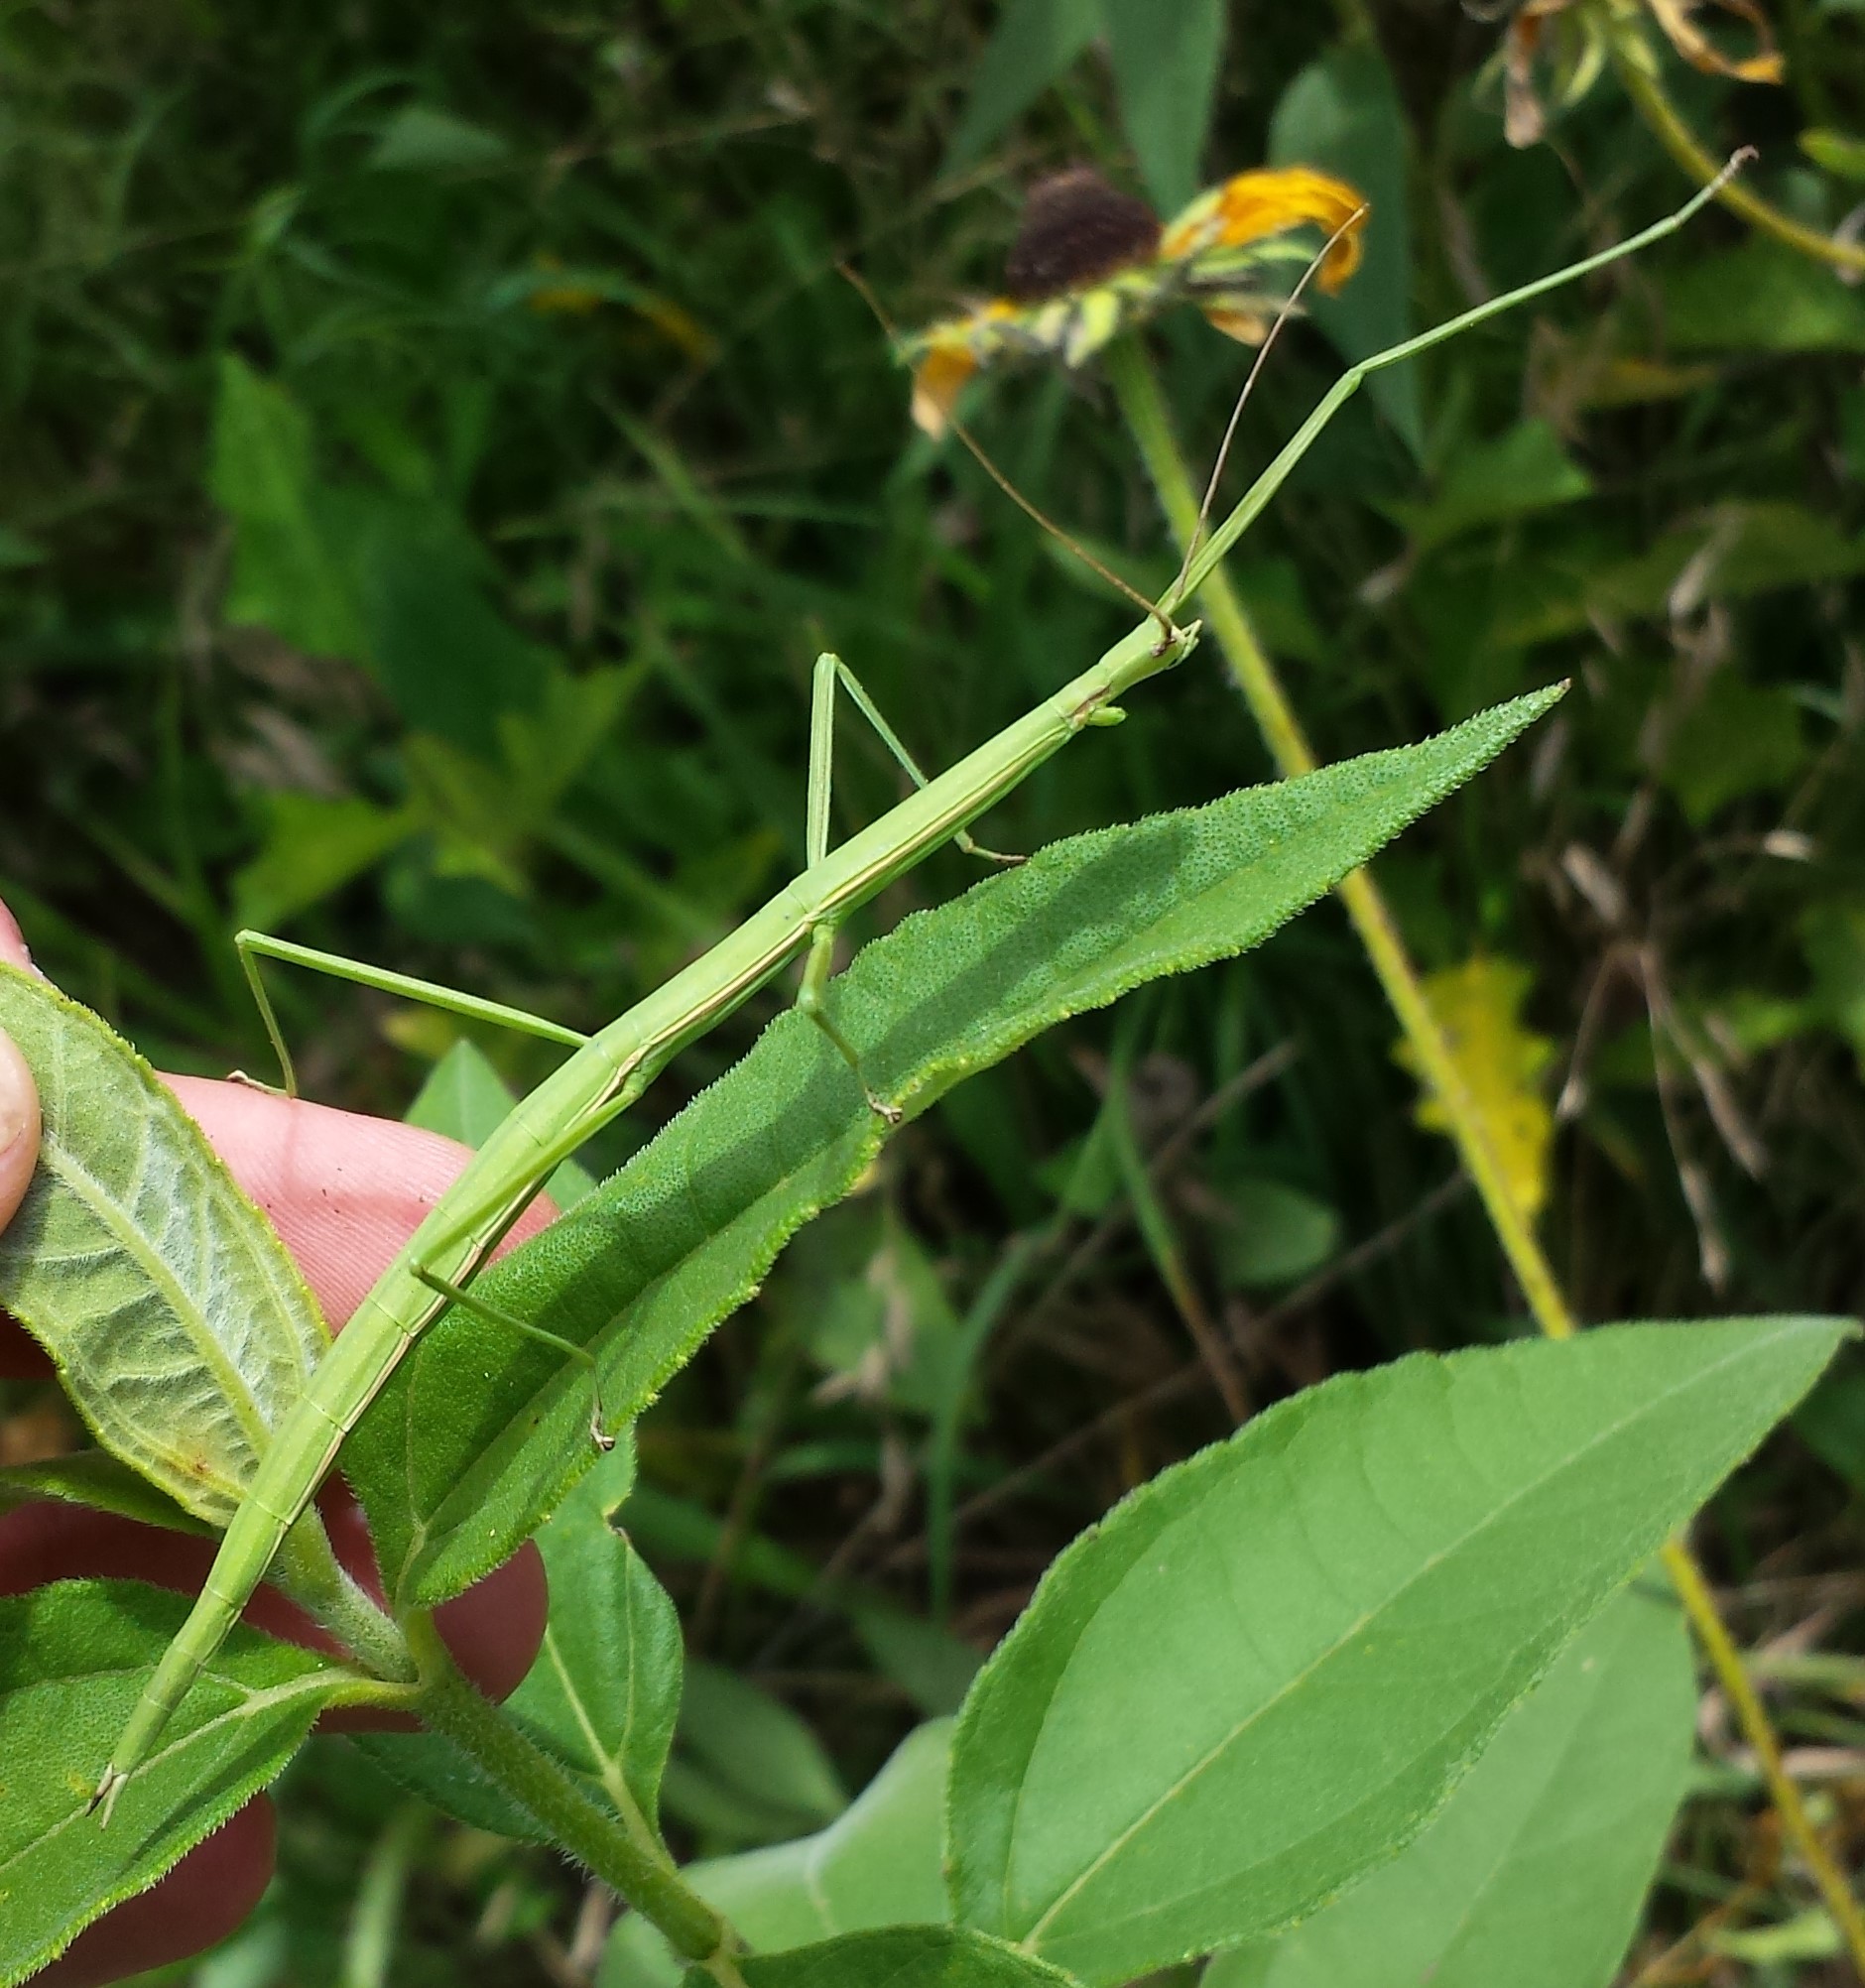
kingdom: Animalia
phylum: Arthropoda
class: Insecta
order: Phasmida
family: Diapheromeridae
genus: Manomera
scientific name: Manomera blatchleyi
